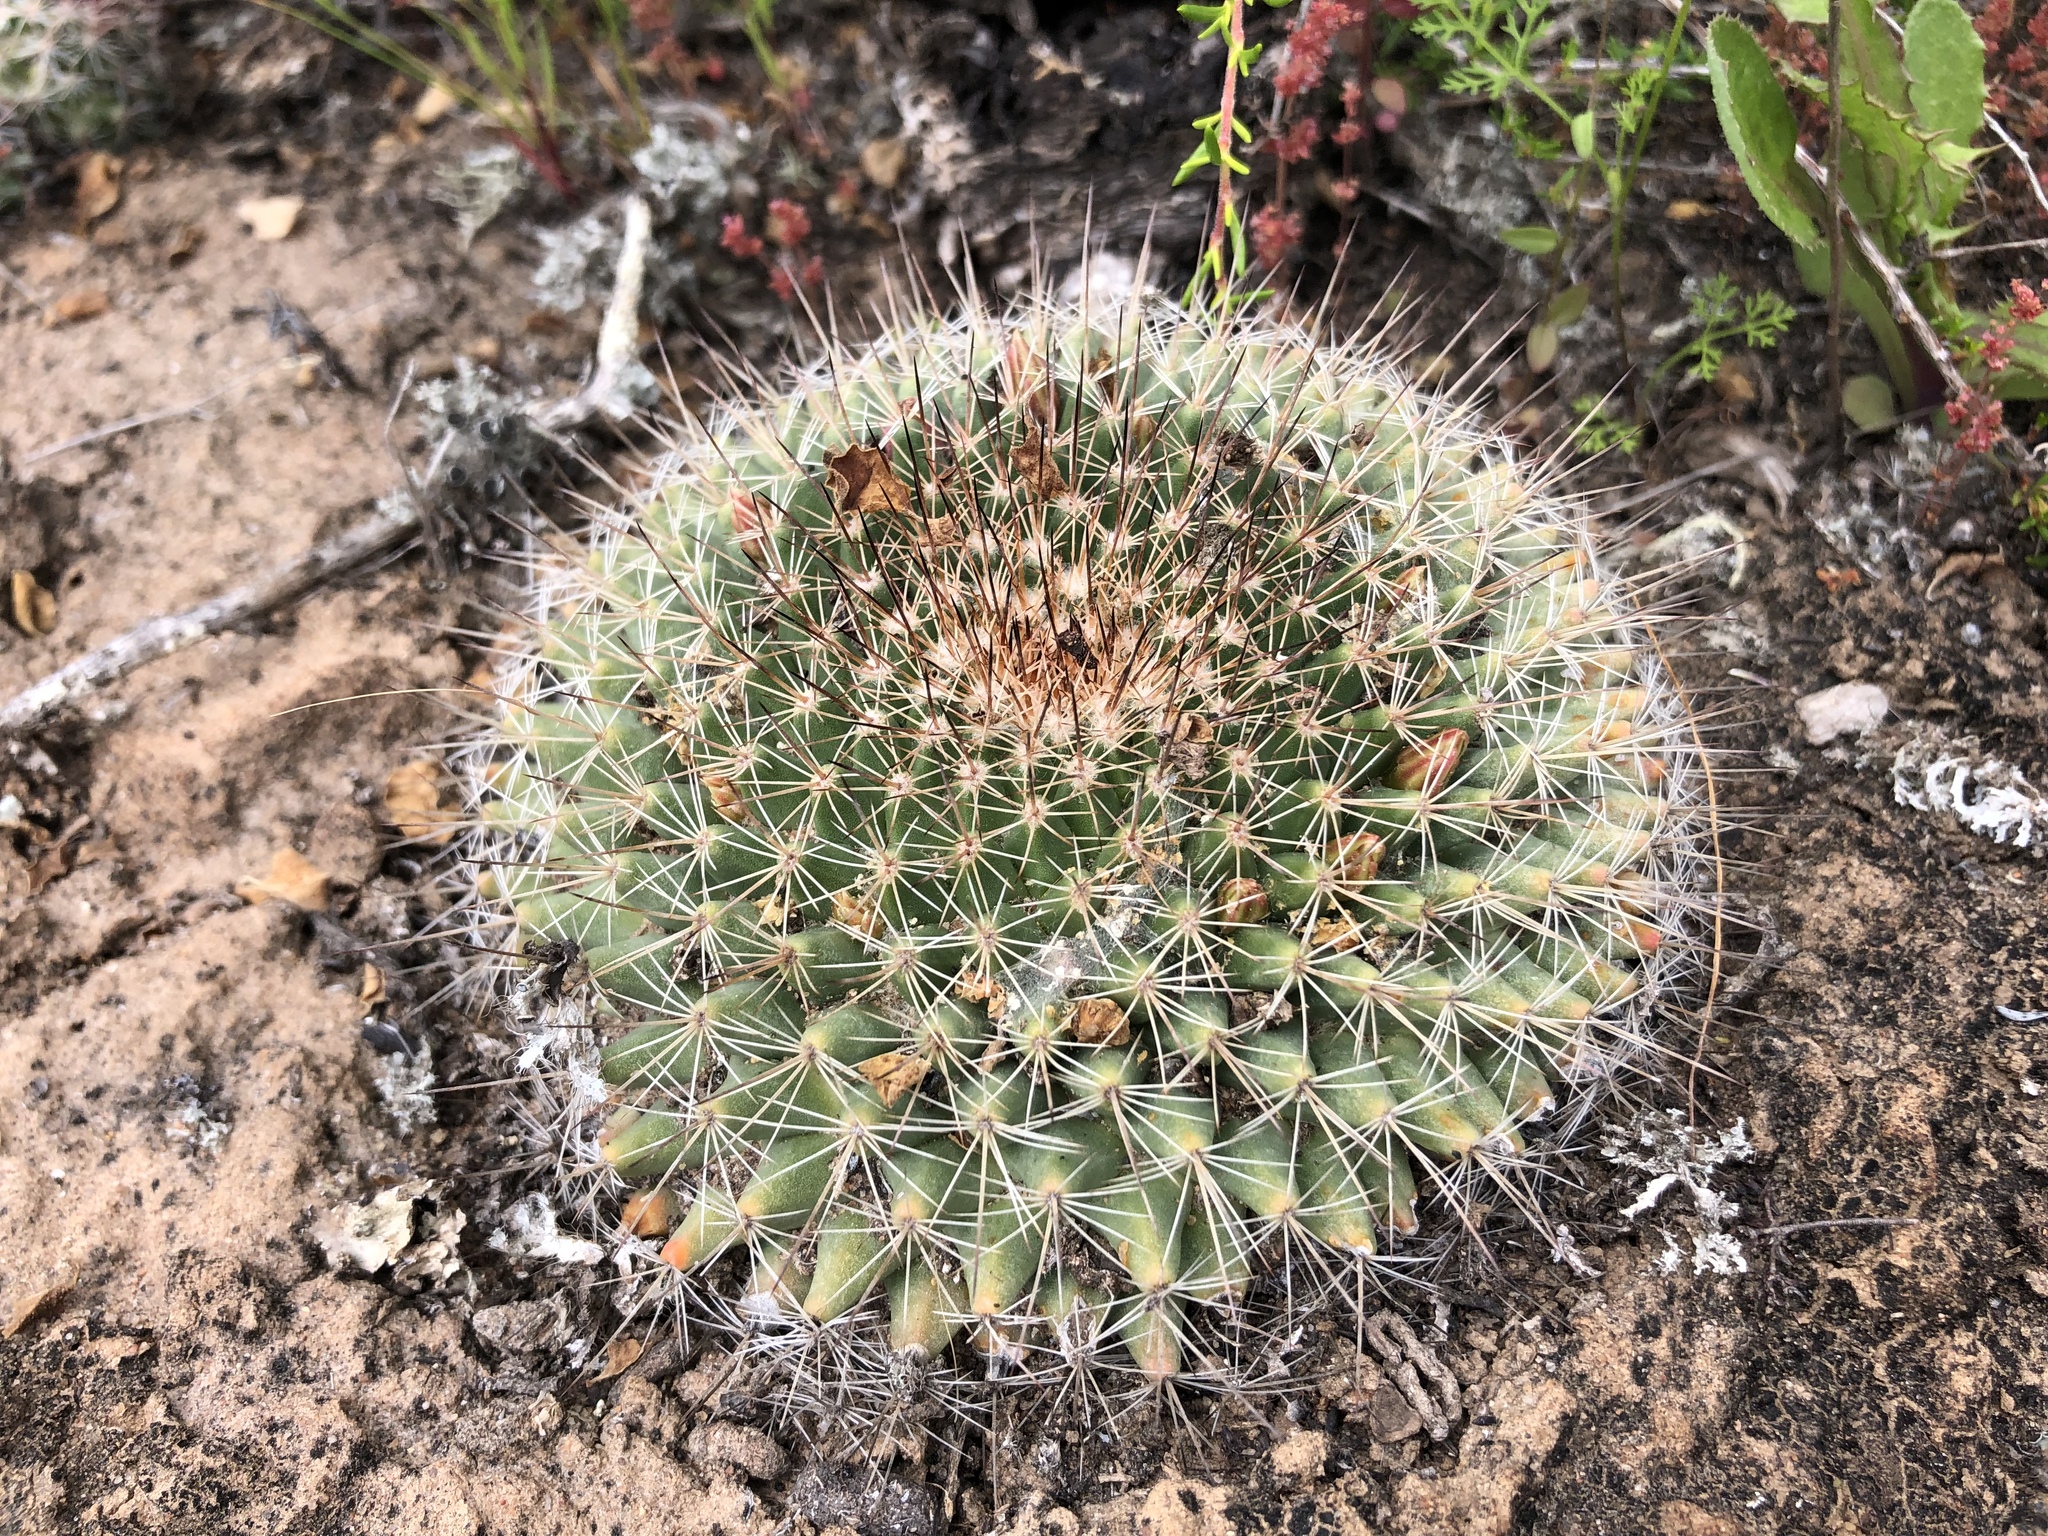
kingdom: Plantae
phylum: Tracheophyta
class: Magnoliopsida
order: Caryophyllales
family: Cactaceae
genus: Mammillaria
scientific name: Mammillaria brandegeei
